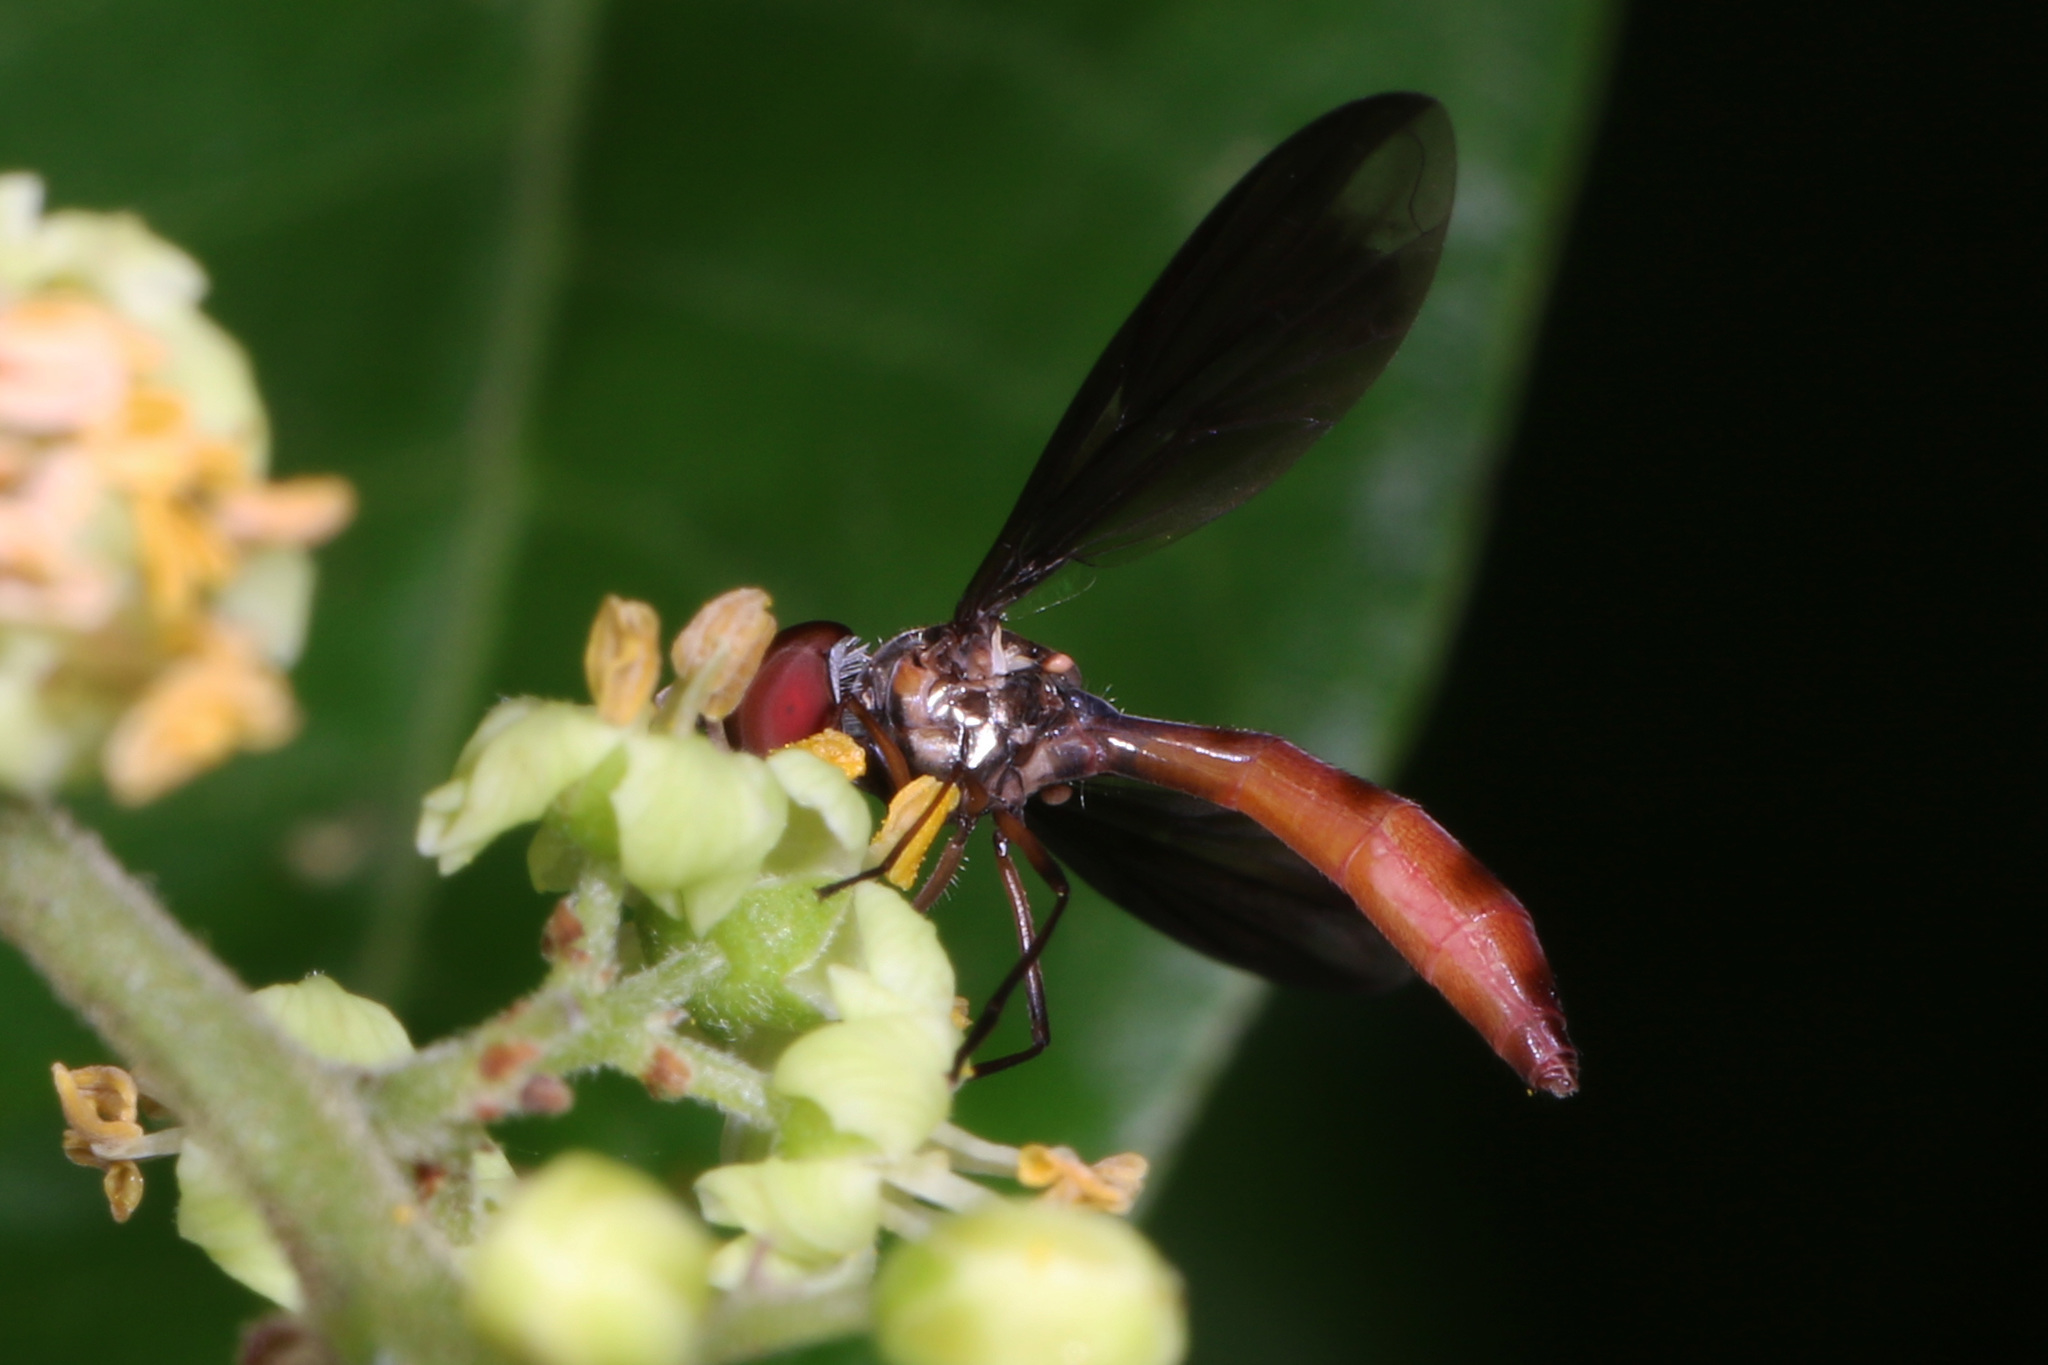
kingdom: Animalia
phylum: Arthropoda
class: Insecta
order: Diptera
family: Syrphidae
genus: Ocyptamus
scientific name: Ocyptamus fuscipennis
